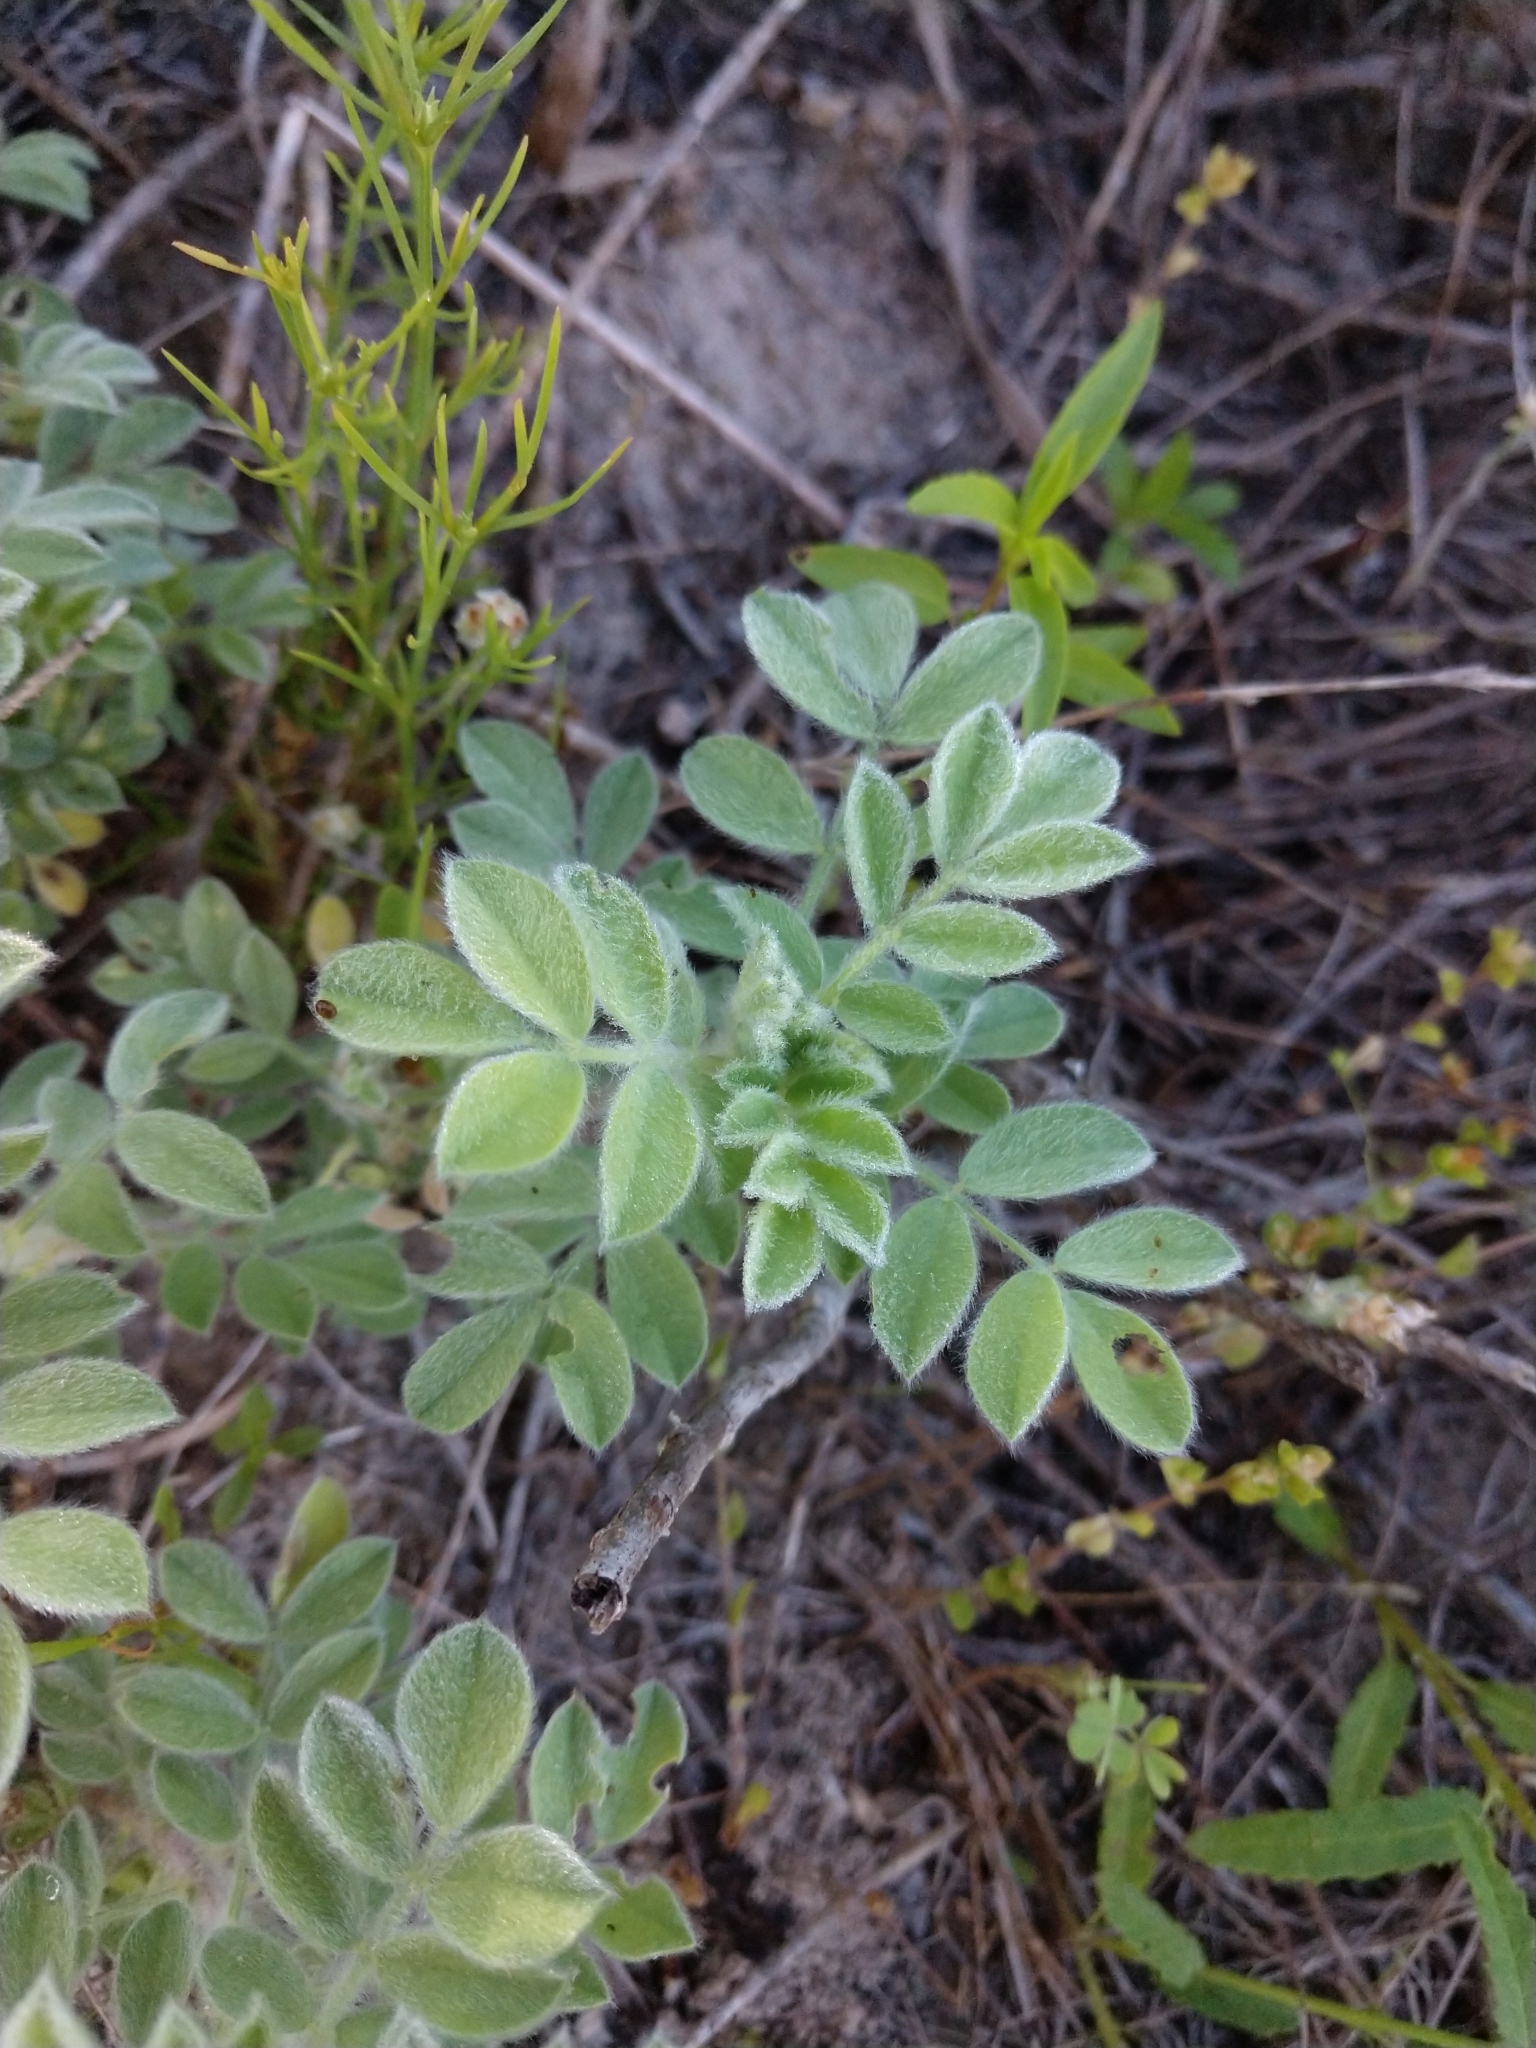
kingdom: Plantae
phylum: Tracheophyta
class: Magnoliopsida
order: Fabales
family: Fabaceae
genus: Dalea
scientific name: Dalea obovata
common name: Pussyfoot
